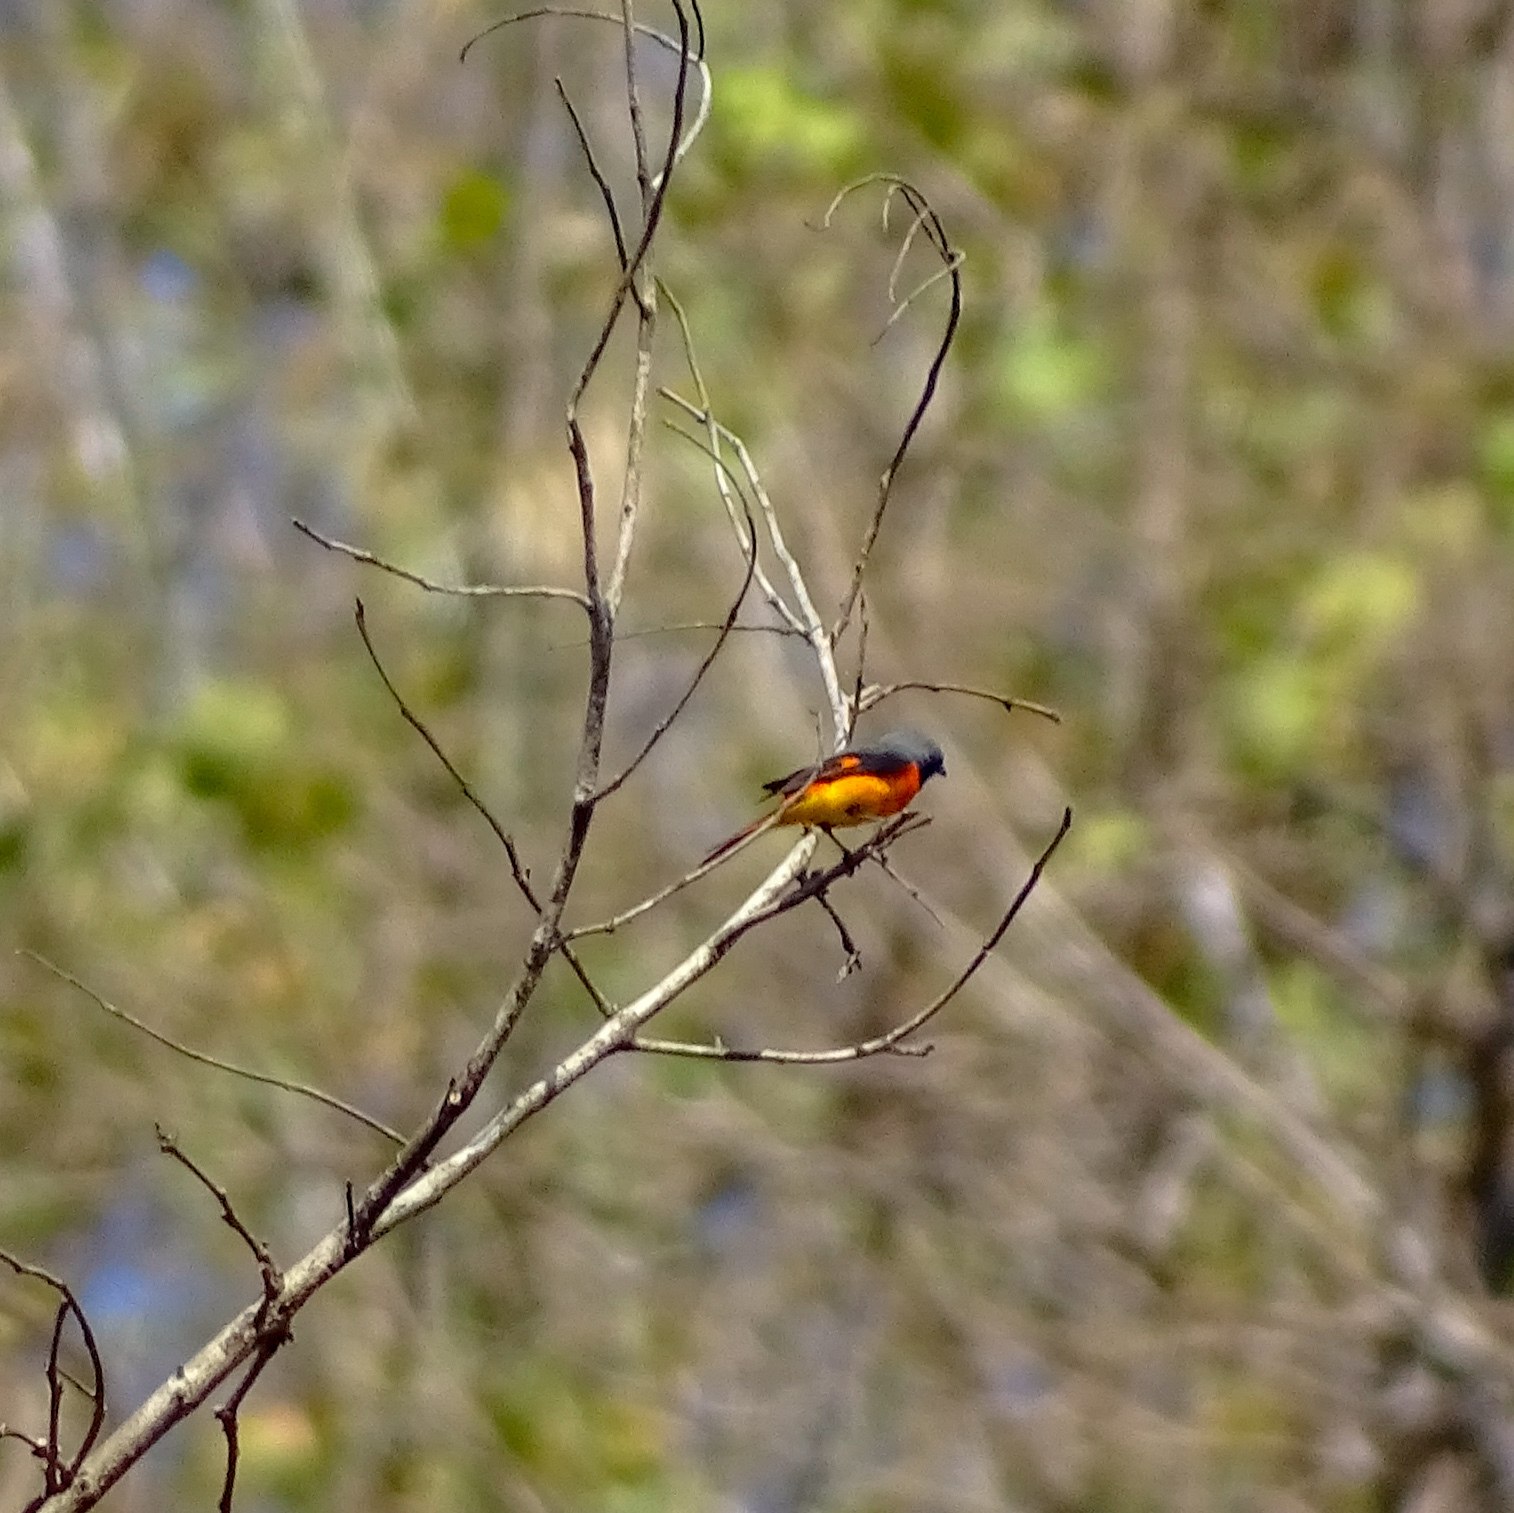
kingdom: Animalia
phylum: Chordata
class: Aves
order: Passeriformes
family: Campephagidae
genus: Pericrocotus
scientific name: Pericrocotus flammeus
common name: Orange minivet
